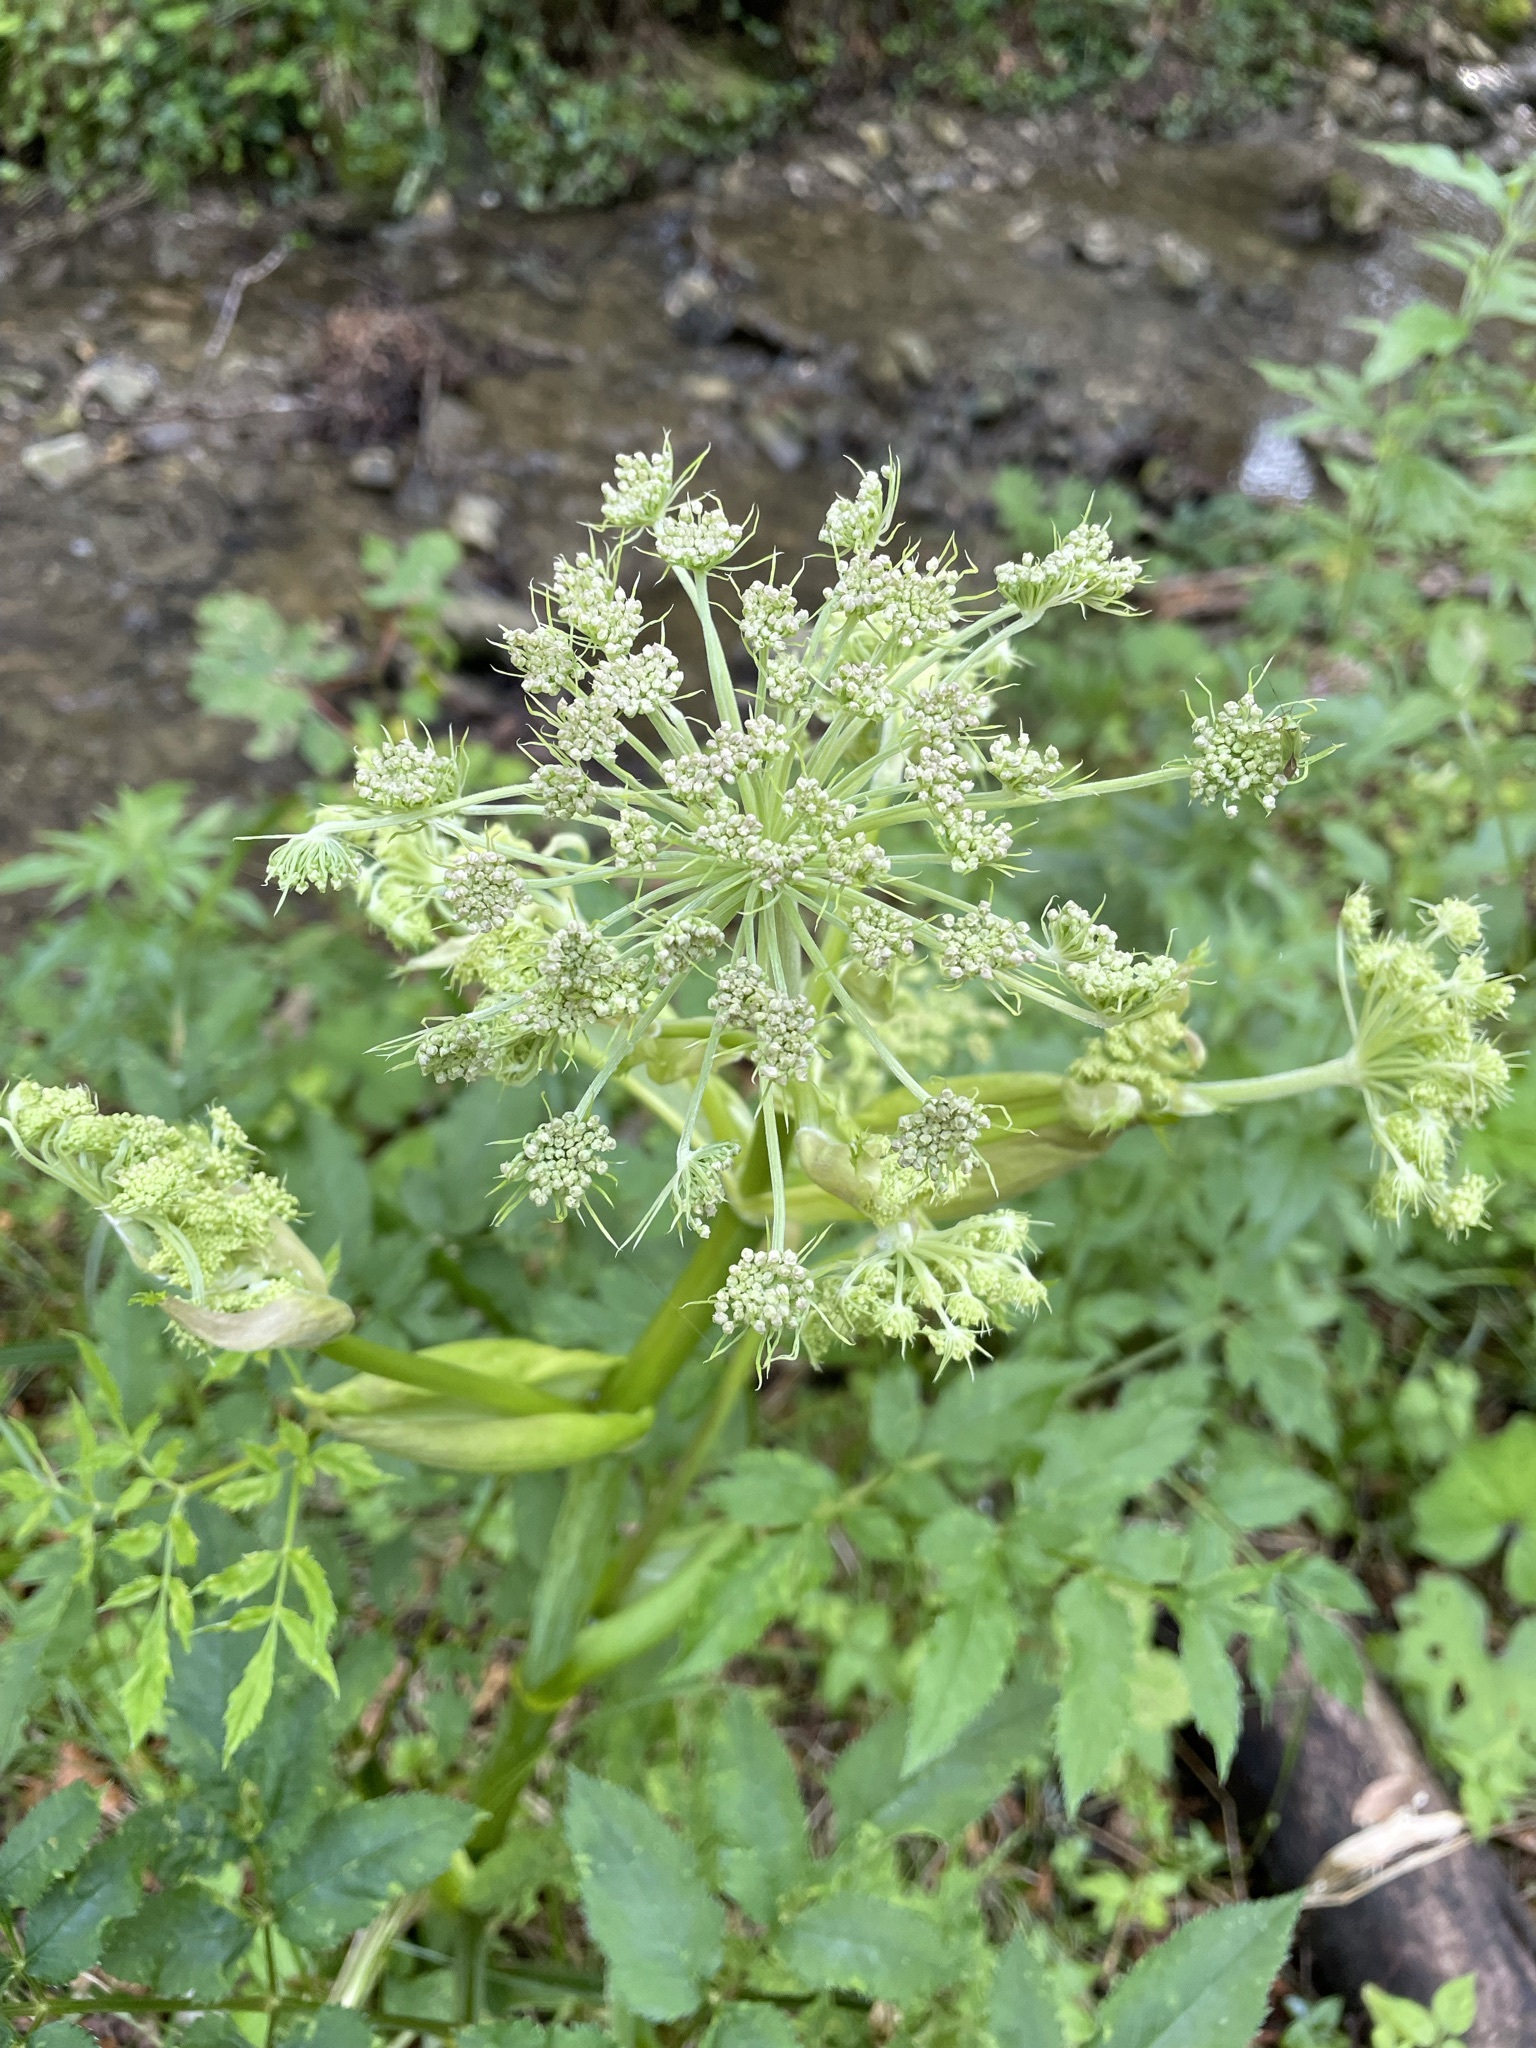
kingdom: Plantae
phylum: Tracheophyta
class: Magnoliopsida
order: Apiales
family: Apiaceae
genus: Angelica
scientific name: Angelica sylvestris
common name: Wild angelica
